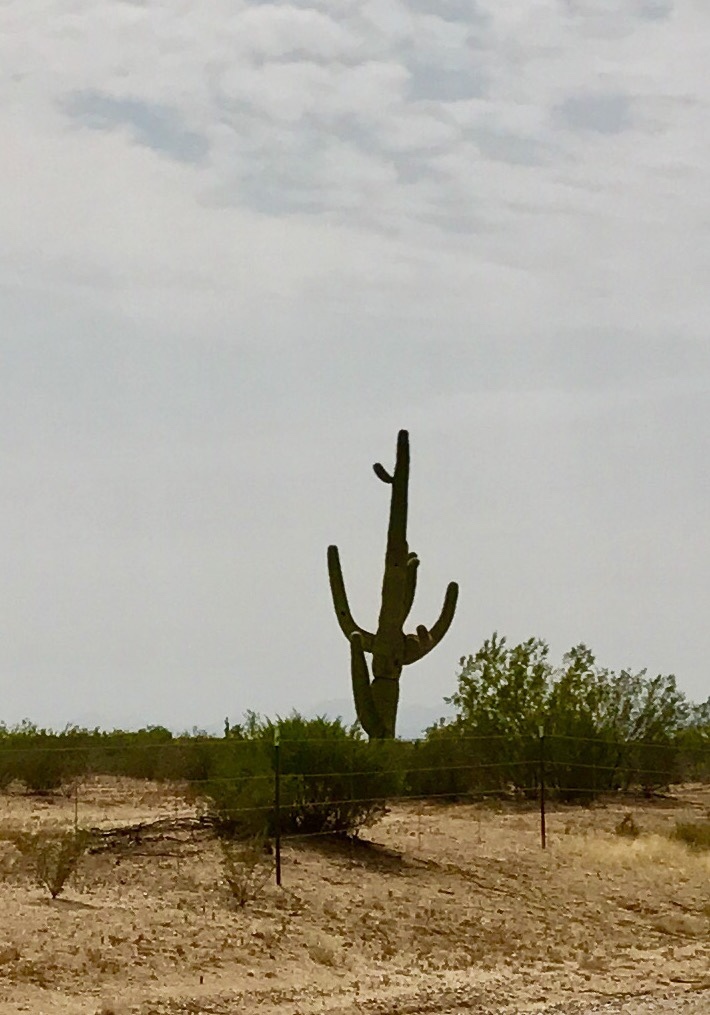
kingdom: Plantae
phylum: Tracheophyta
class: Magnoliopsida
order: Caryophyllales
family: Cactaceae
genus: Carnegiea
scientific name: Carnegiea gigantea
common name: Saguaro
